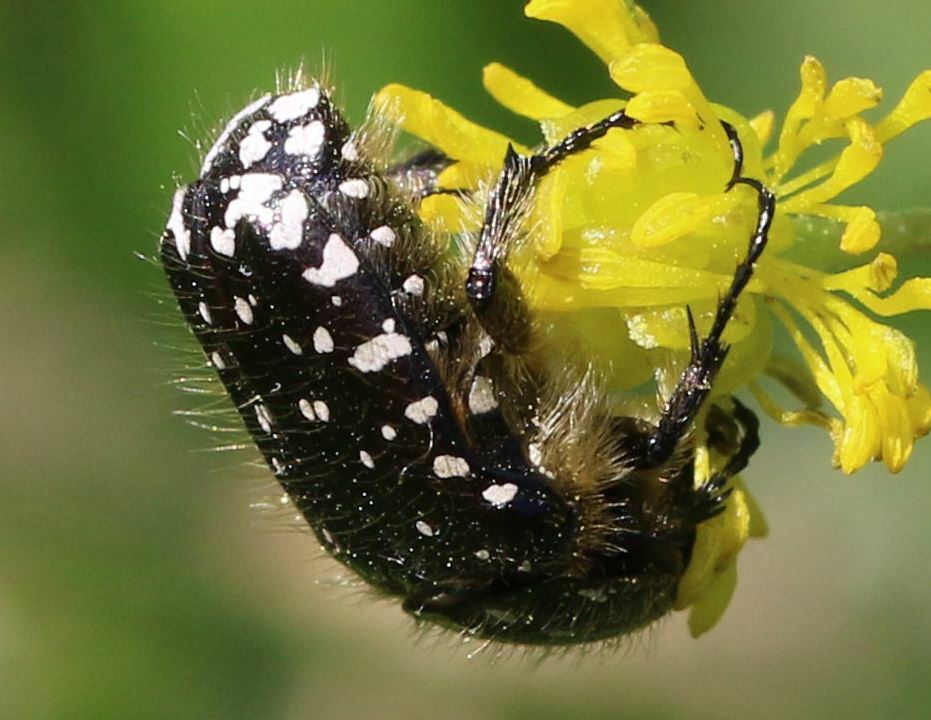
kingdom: Animalia
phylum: Arthropoda
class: Insecta
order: Coleoptera
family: Scarabaeidae
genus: Oxythyrea
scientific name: Oxythyrea funesta
